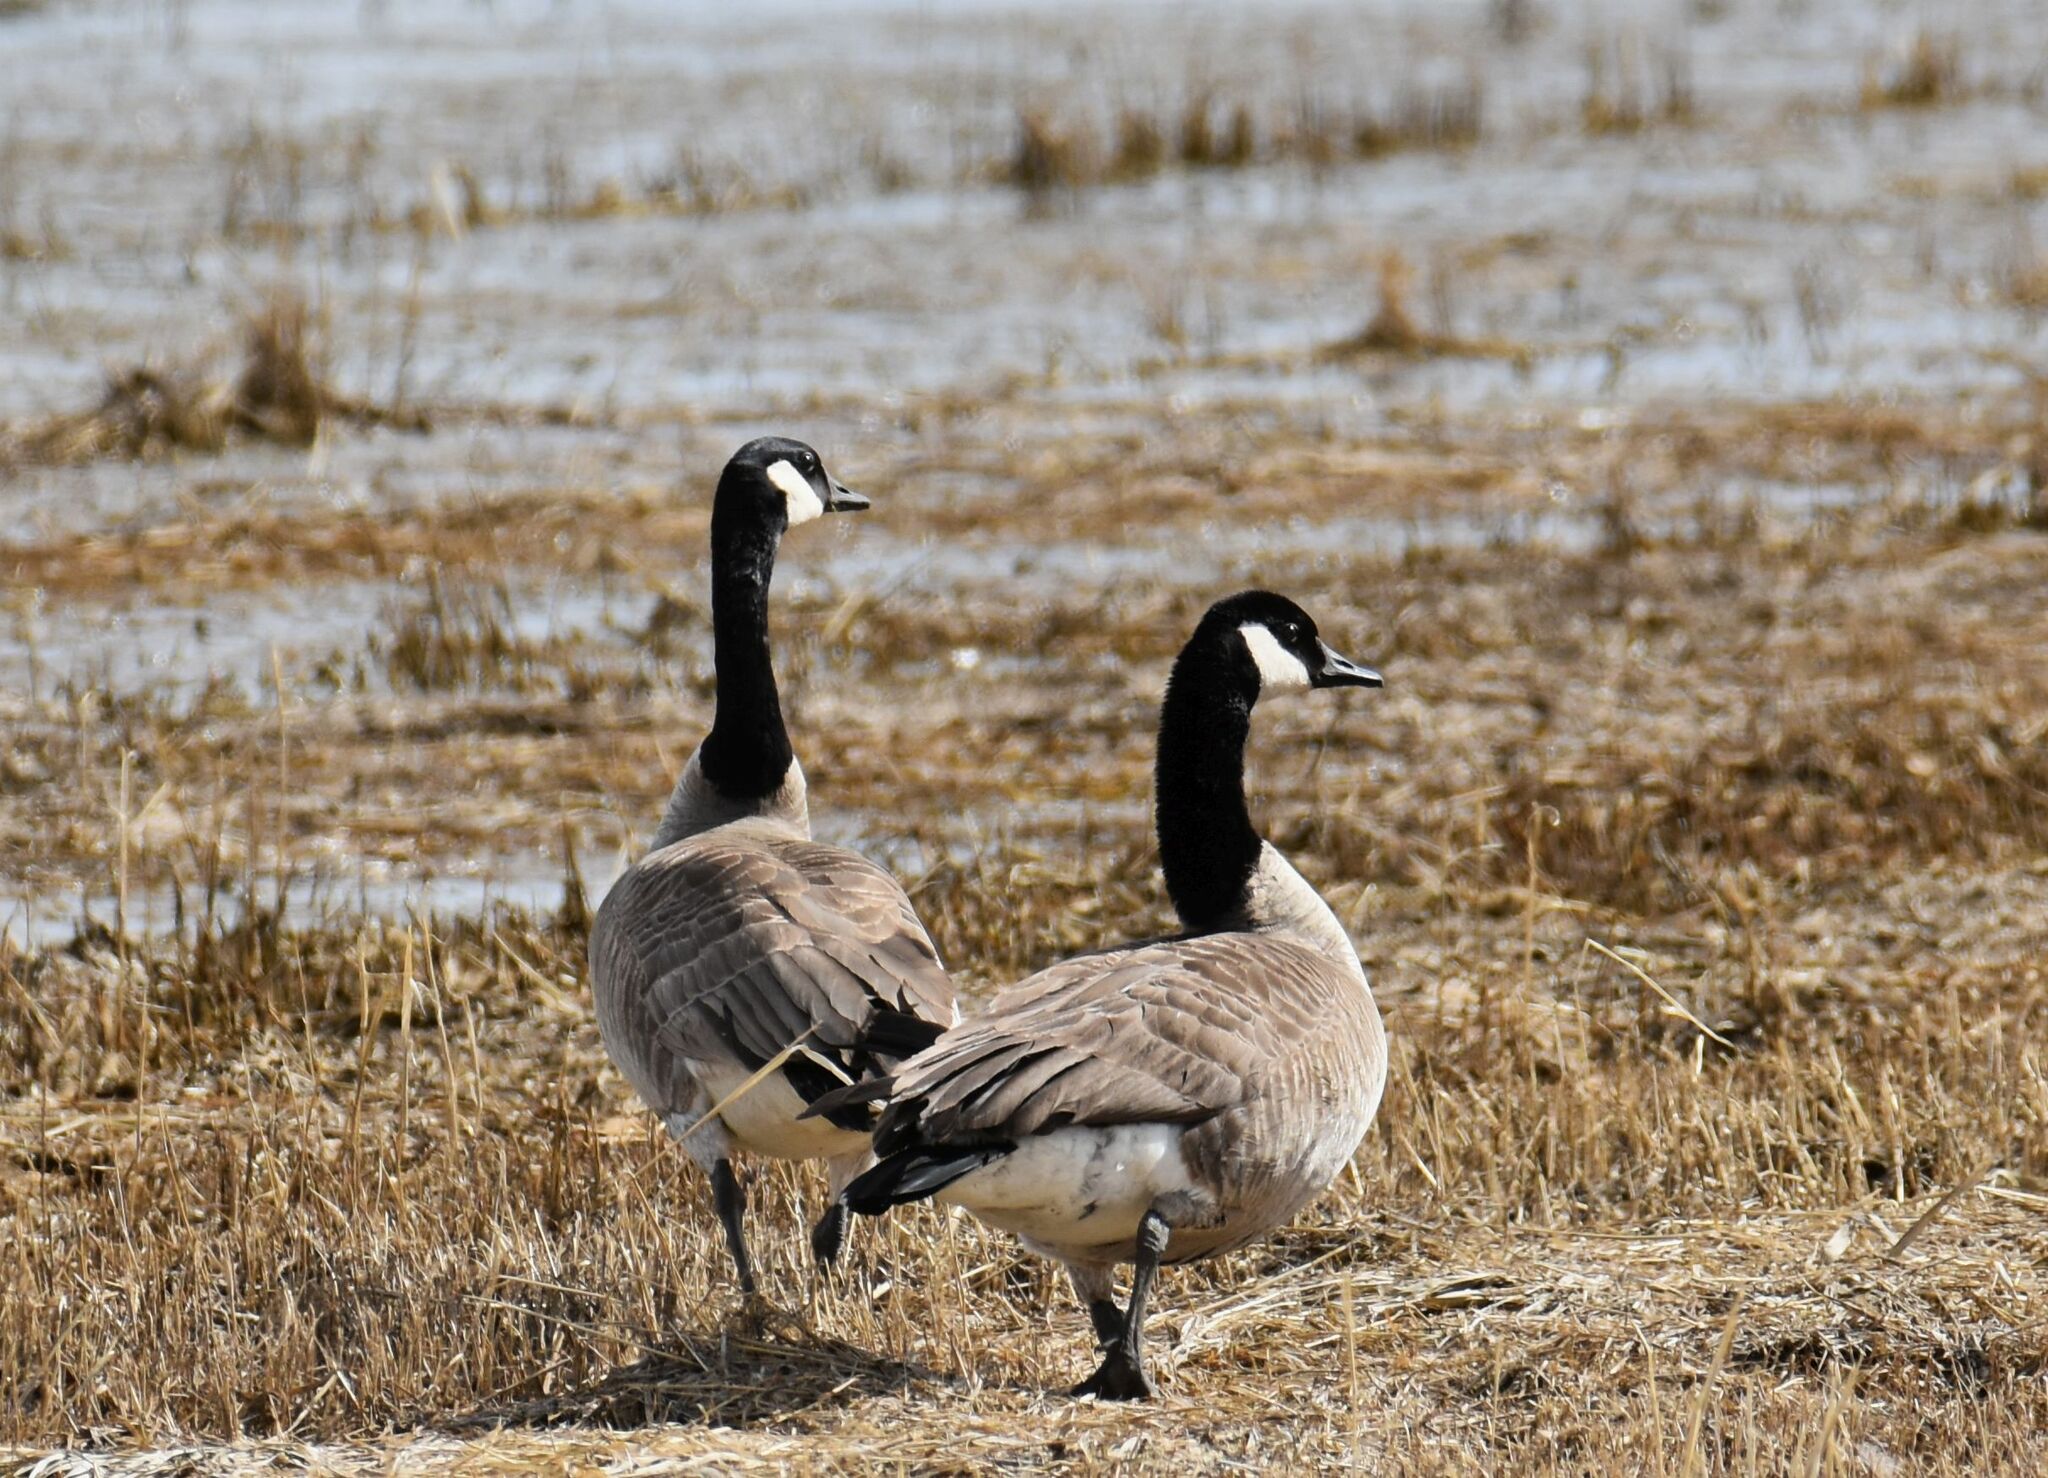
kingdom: Animalia
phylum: Chordata
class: Aves
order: Anseriformes
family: Anatidae
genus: Branta
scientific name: Branta canadensis
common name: Canada goose
